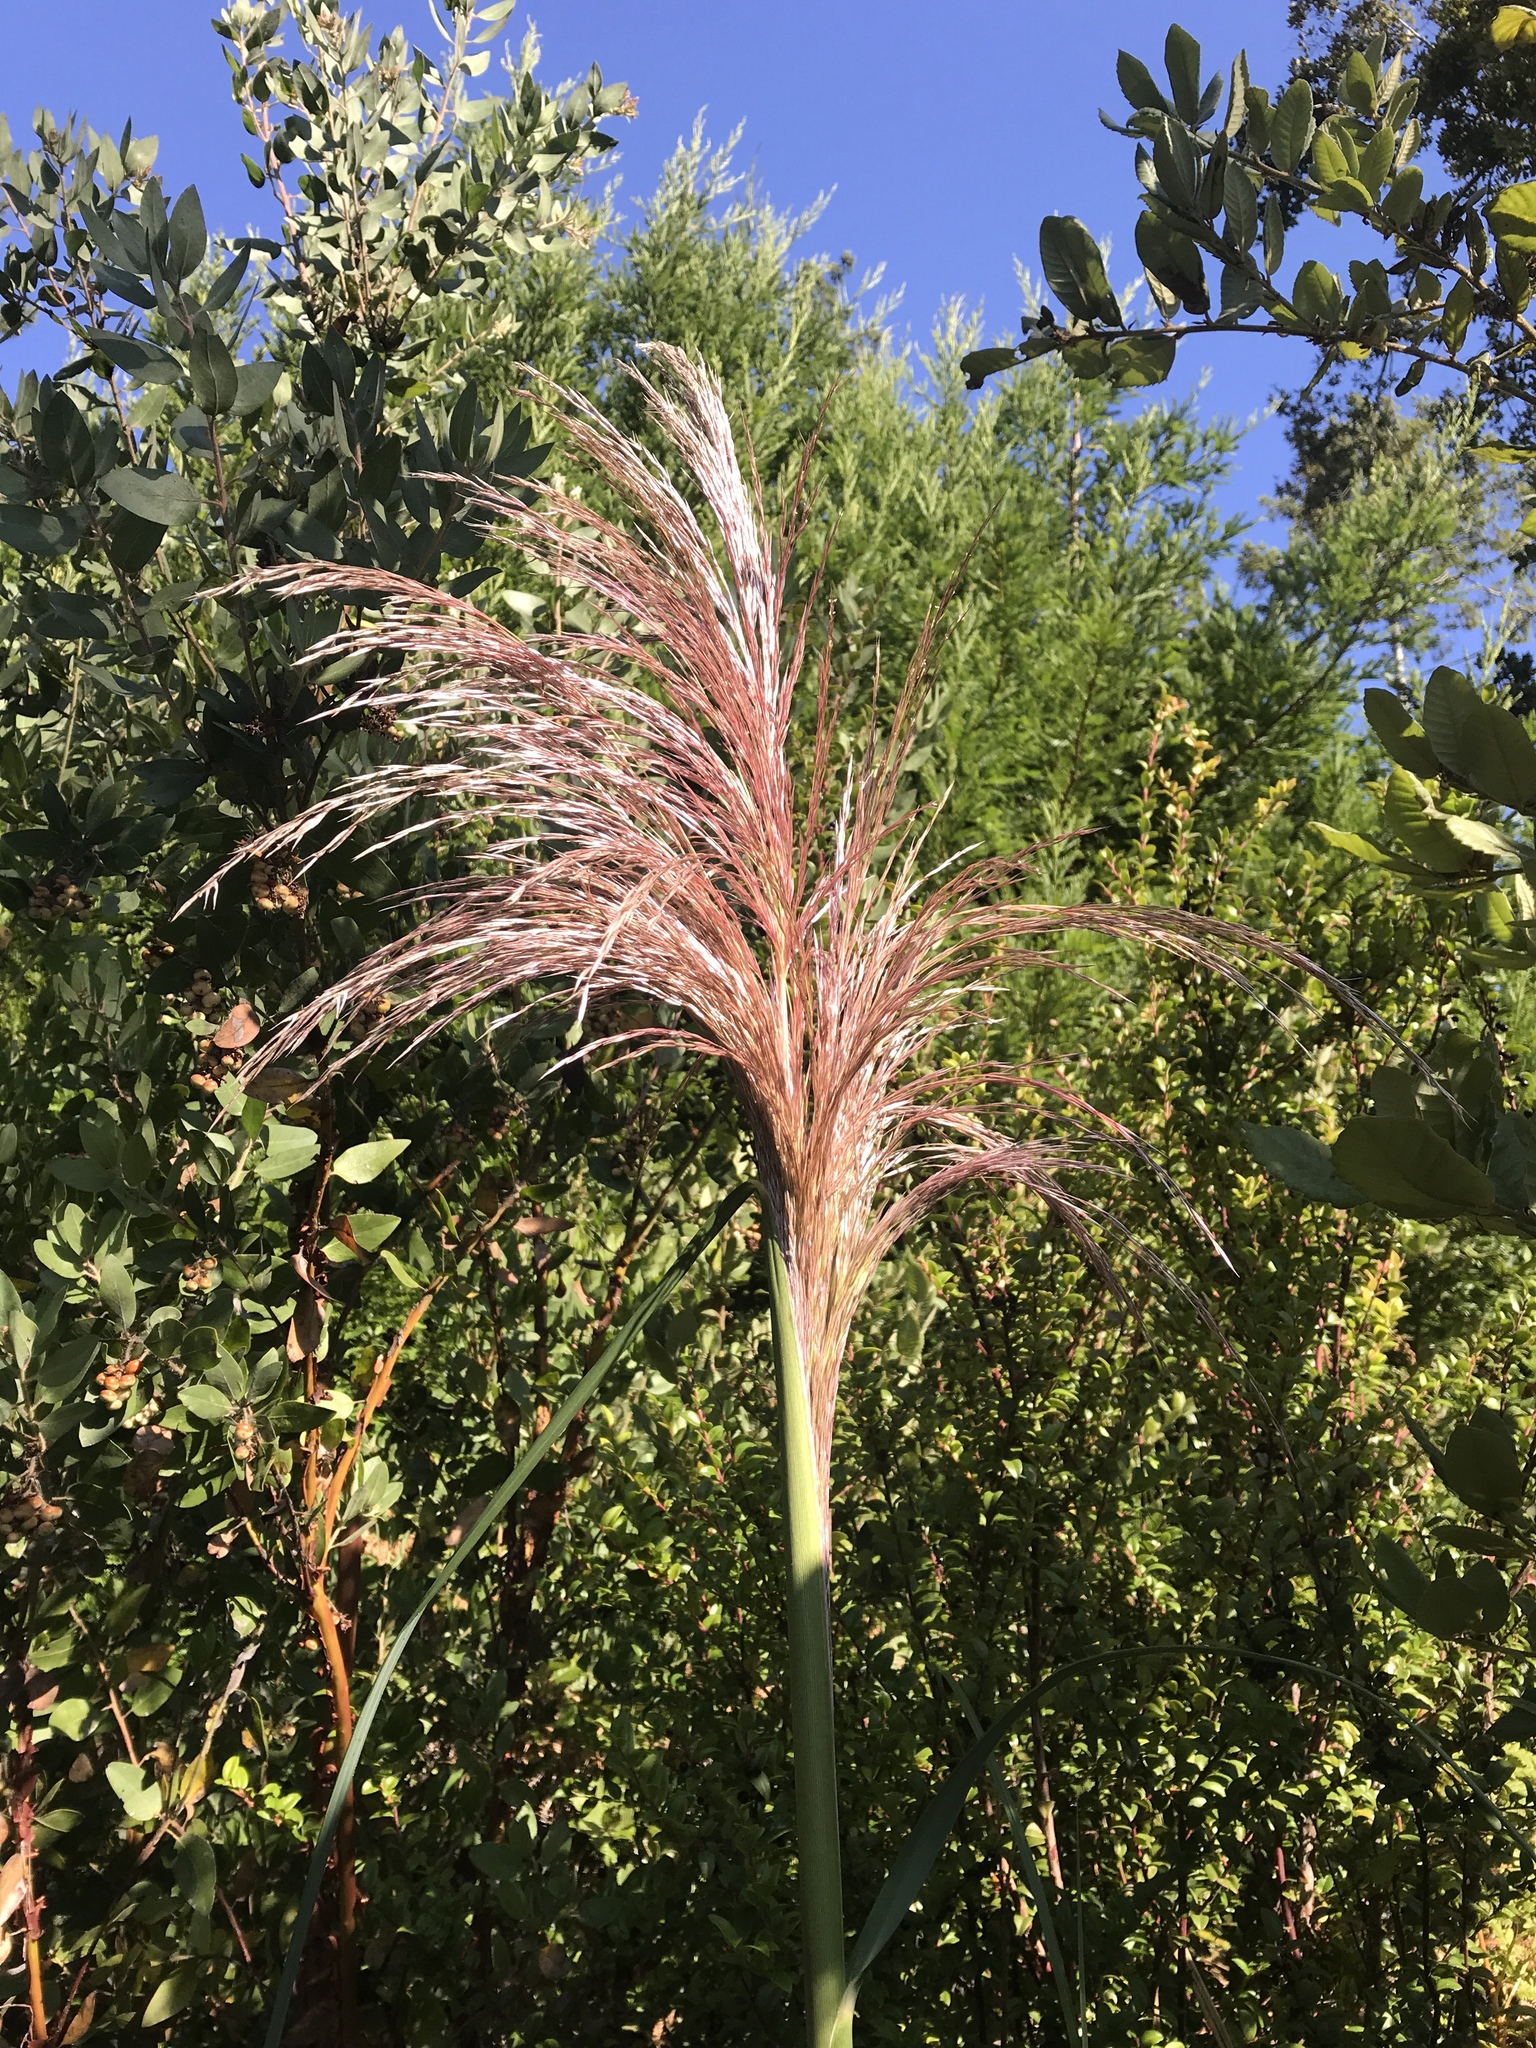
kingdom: Plantae
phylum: Tracheophyta
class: Liliopsida
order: Poales
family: Poaceae
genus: Cortaderia
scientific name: Cortaderia jubata
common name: Purple pampas grass
